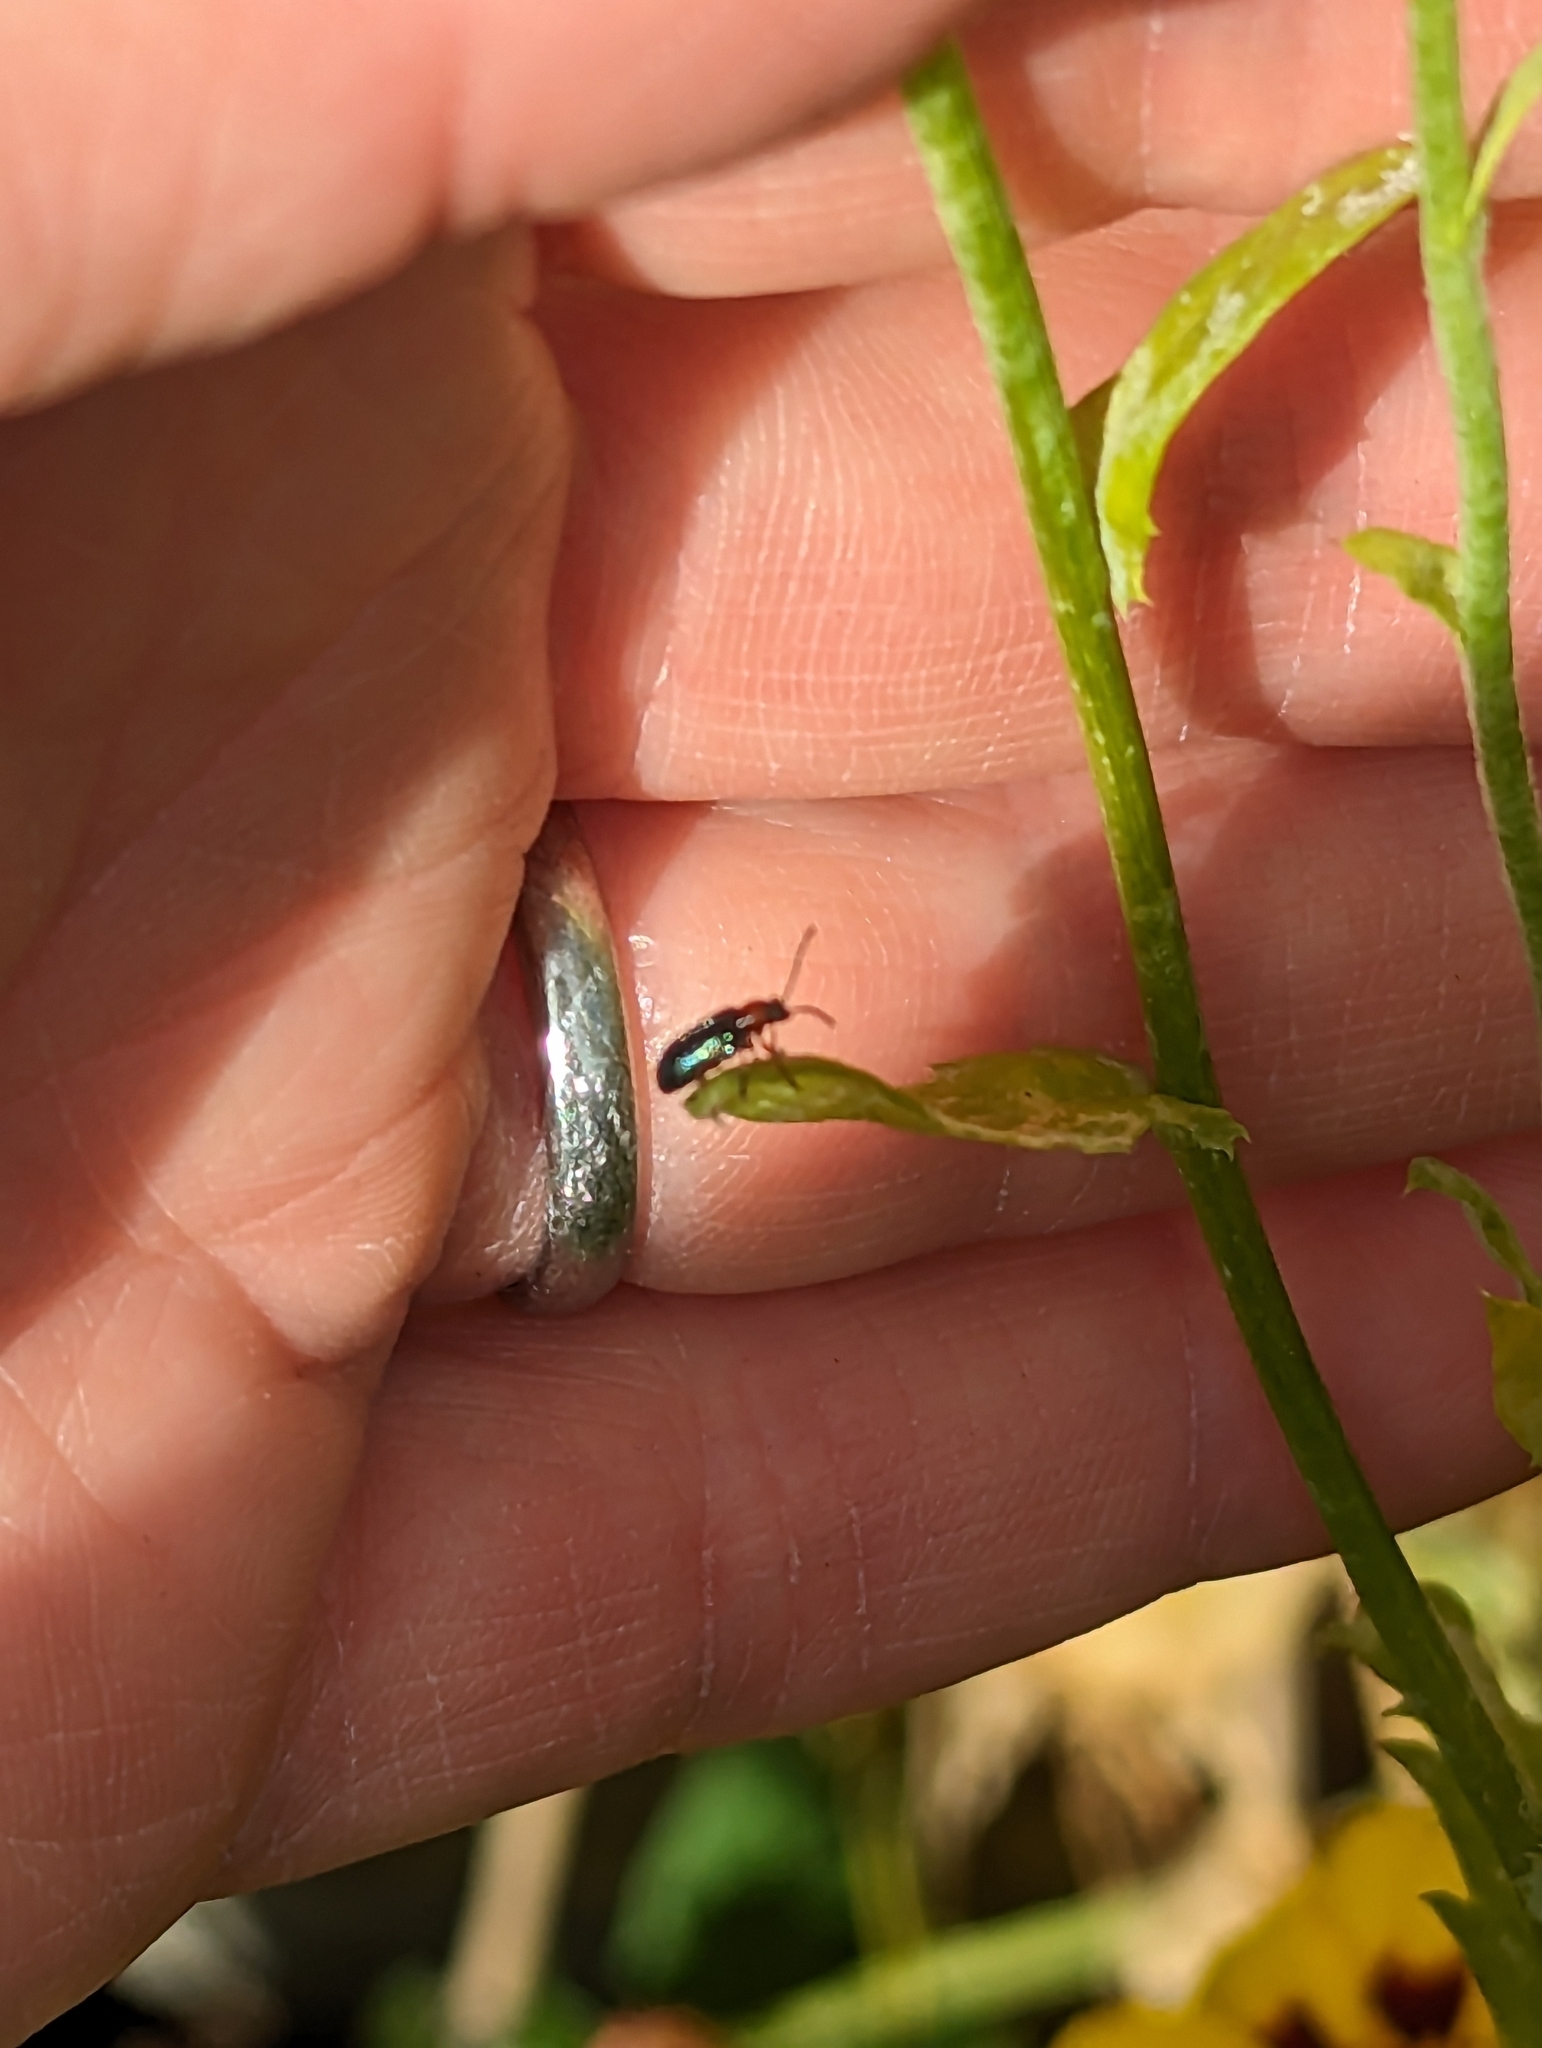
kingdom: Animalia
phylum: Arthropoda
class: Insecta
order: Coleoptera
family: Chrysomelidae
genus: Oulema
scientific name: Oulema
